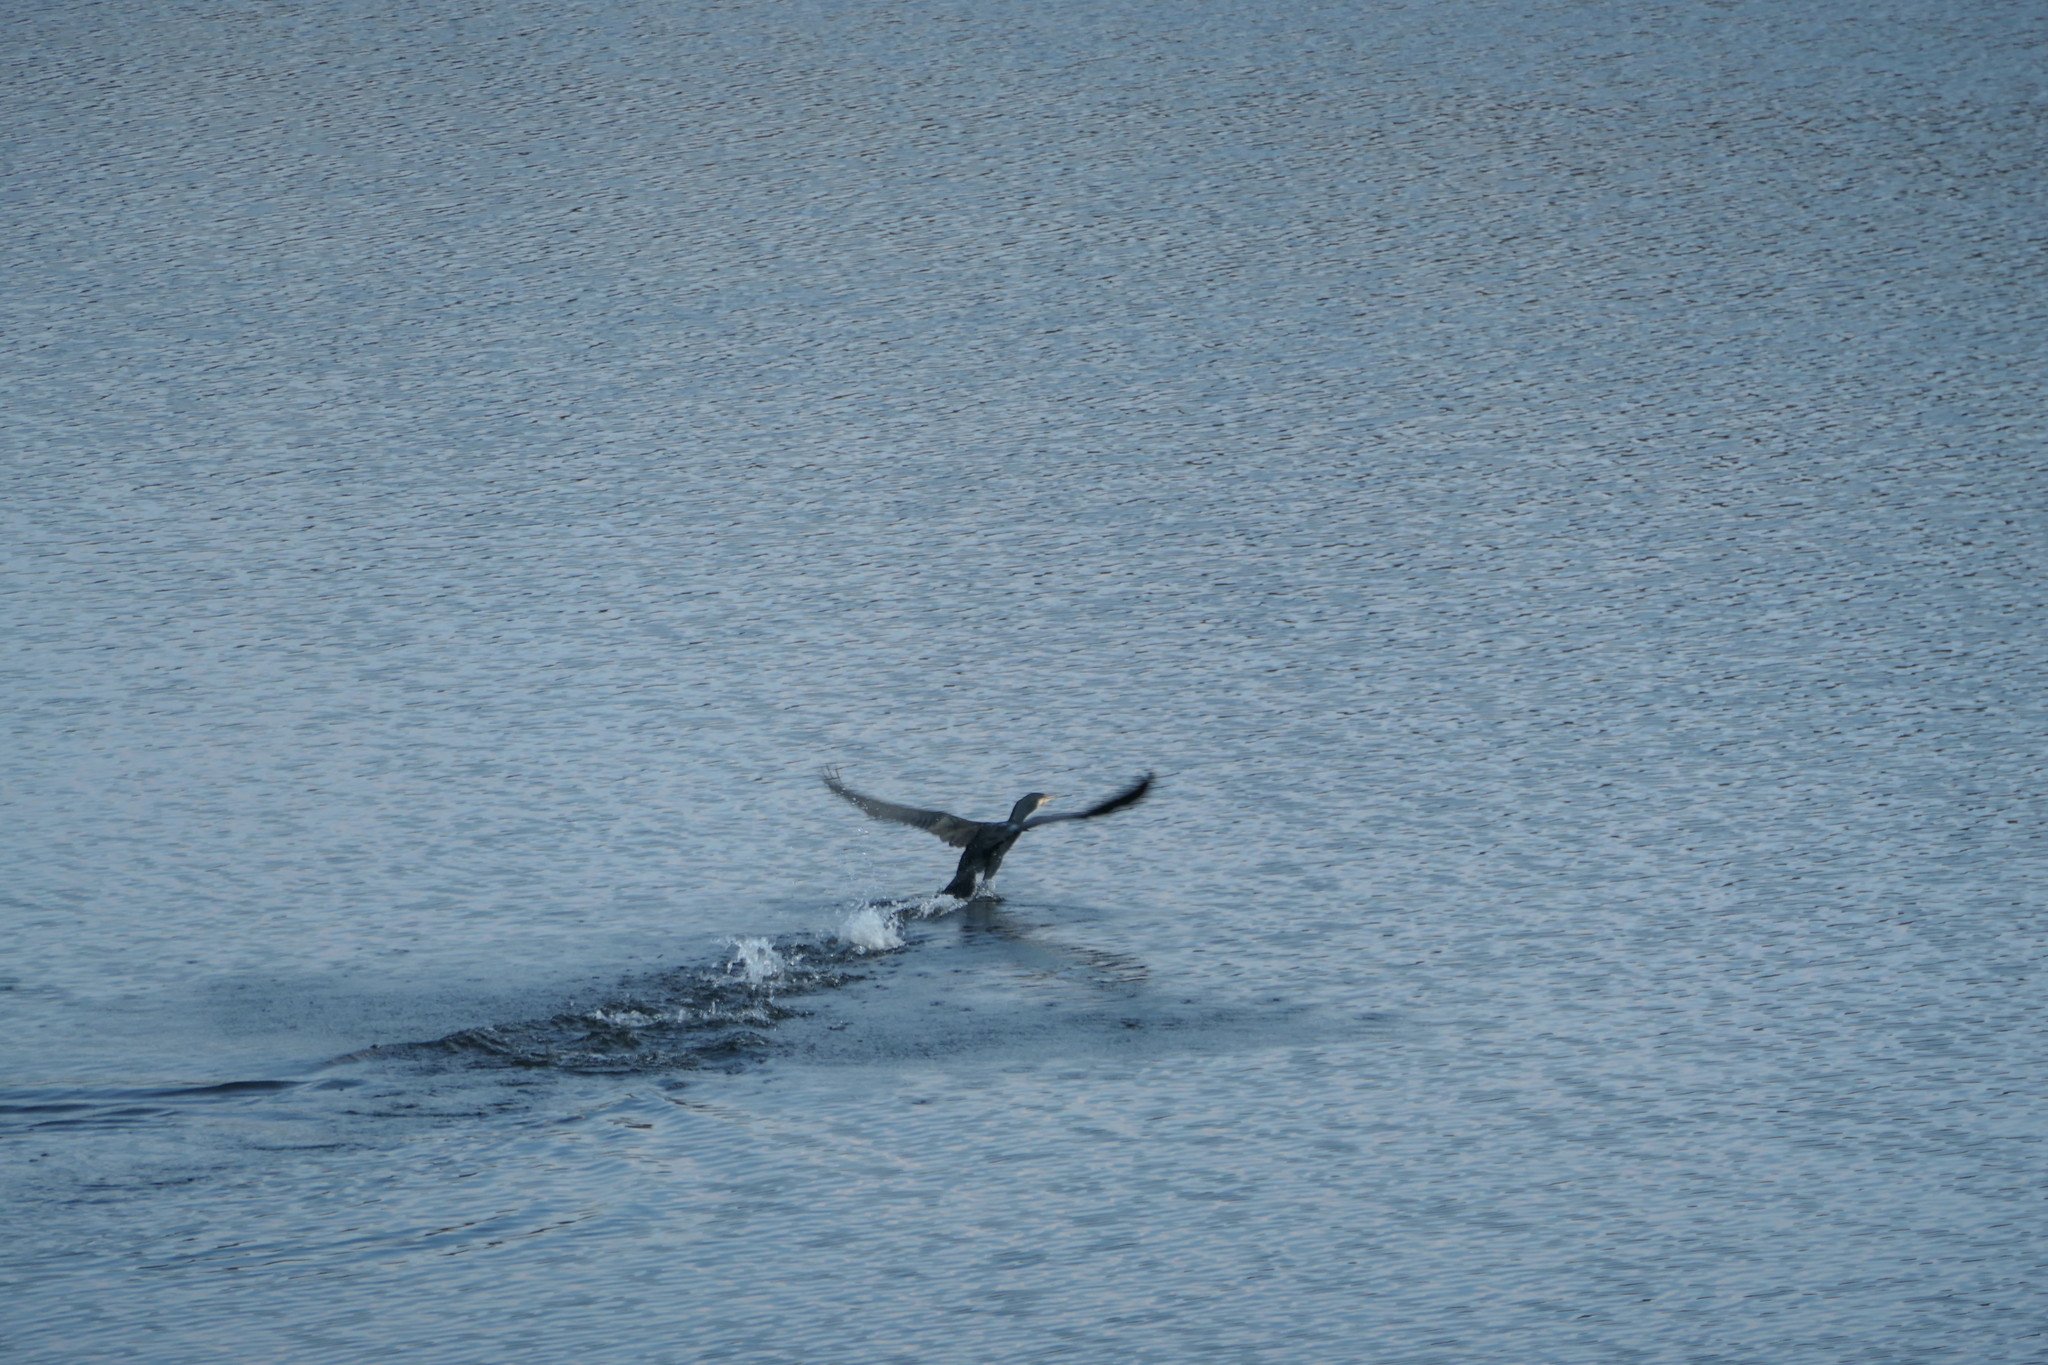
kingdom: Animalia
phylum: Chordata
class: Aves
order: Suliformes
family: Phalacrocoracidae
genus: Phalacrocorax
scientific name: Phalacrocorax carbo
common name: Great cormorant
